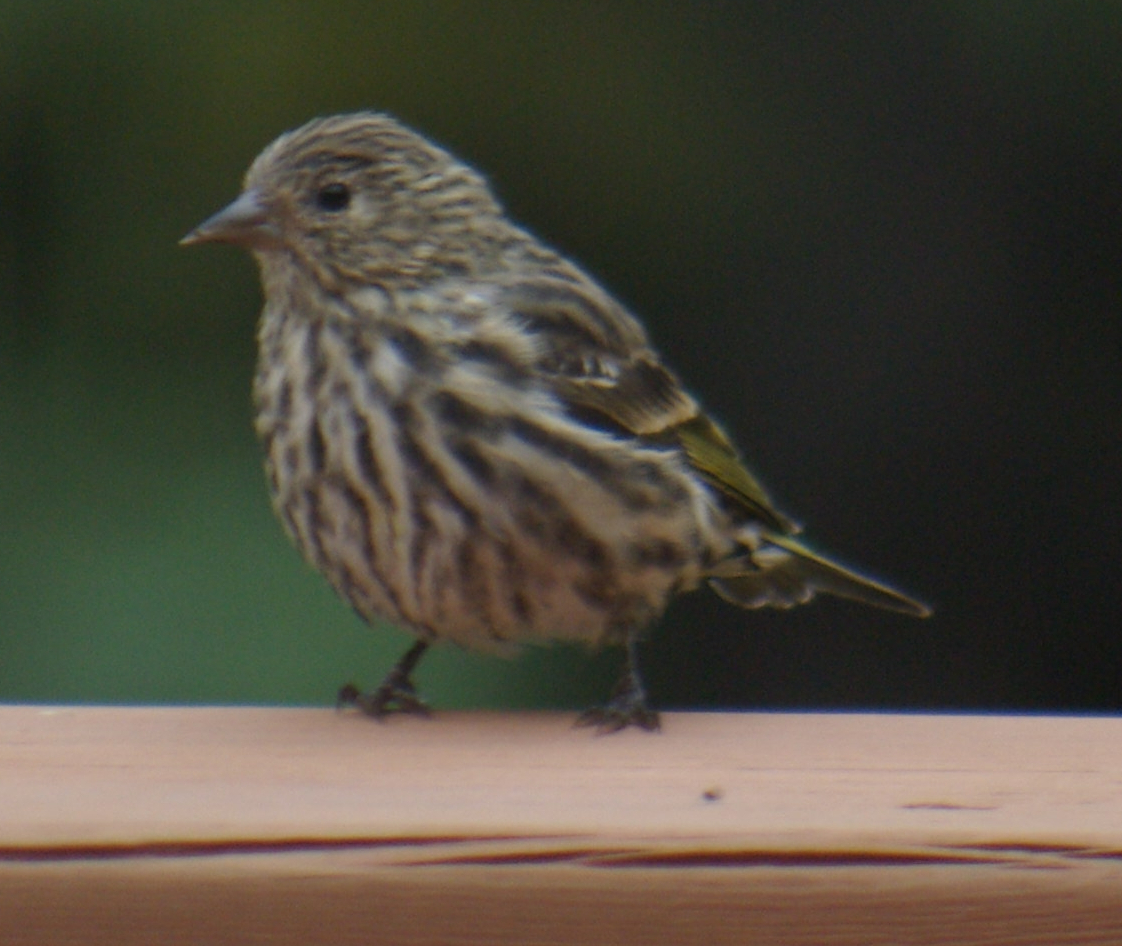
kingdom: Animalia
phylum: Chordata
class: Aves
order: Passeriformes
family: Fringillidae
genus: Spinus
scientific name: Spinus pinus
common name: Pine siskin
